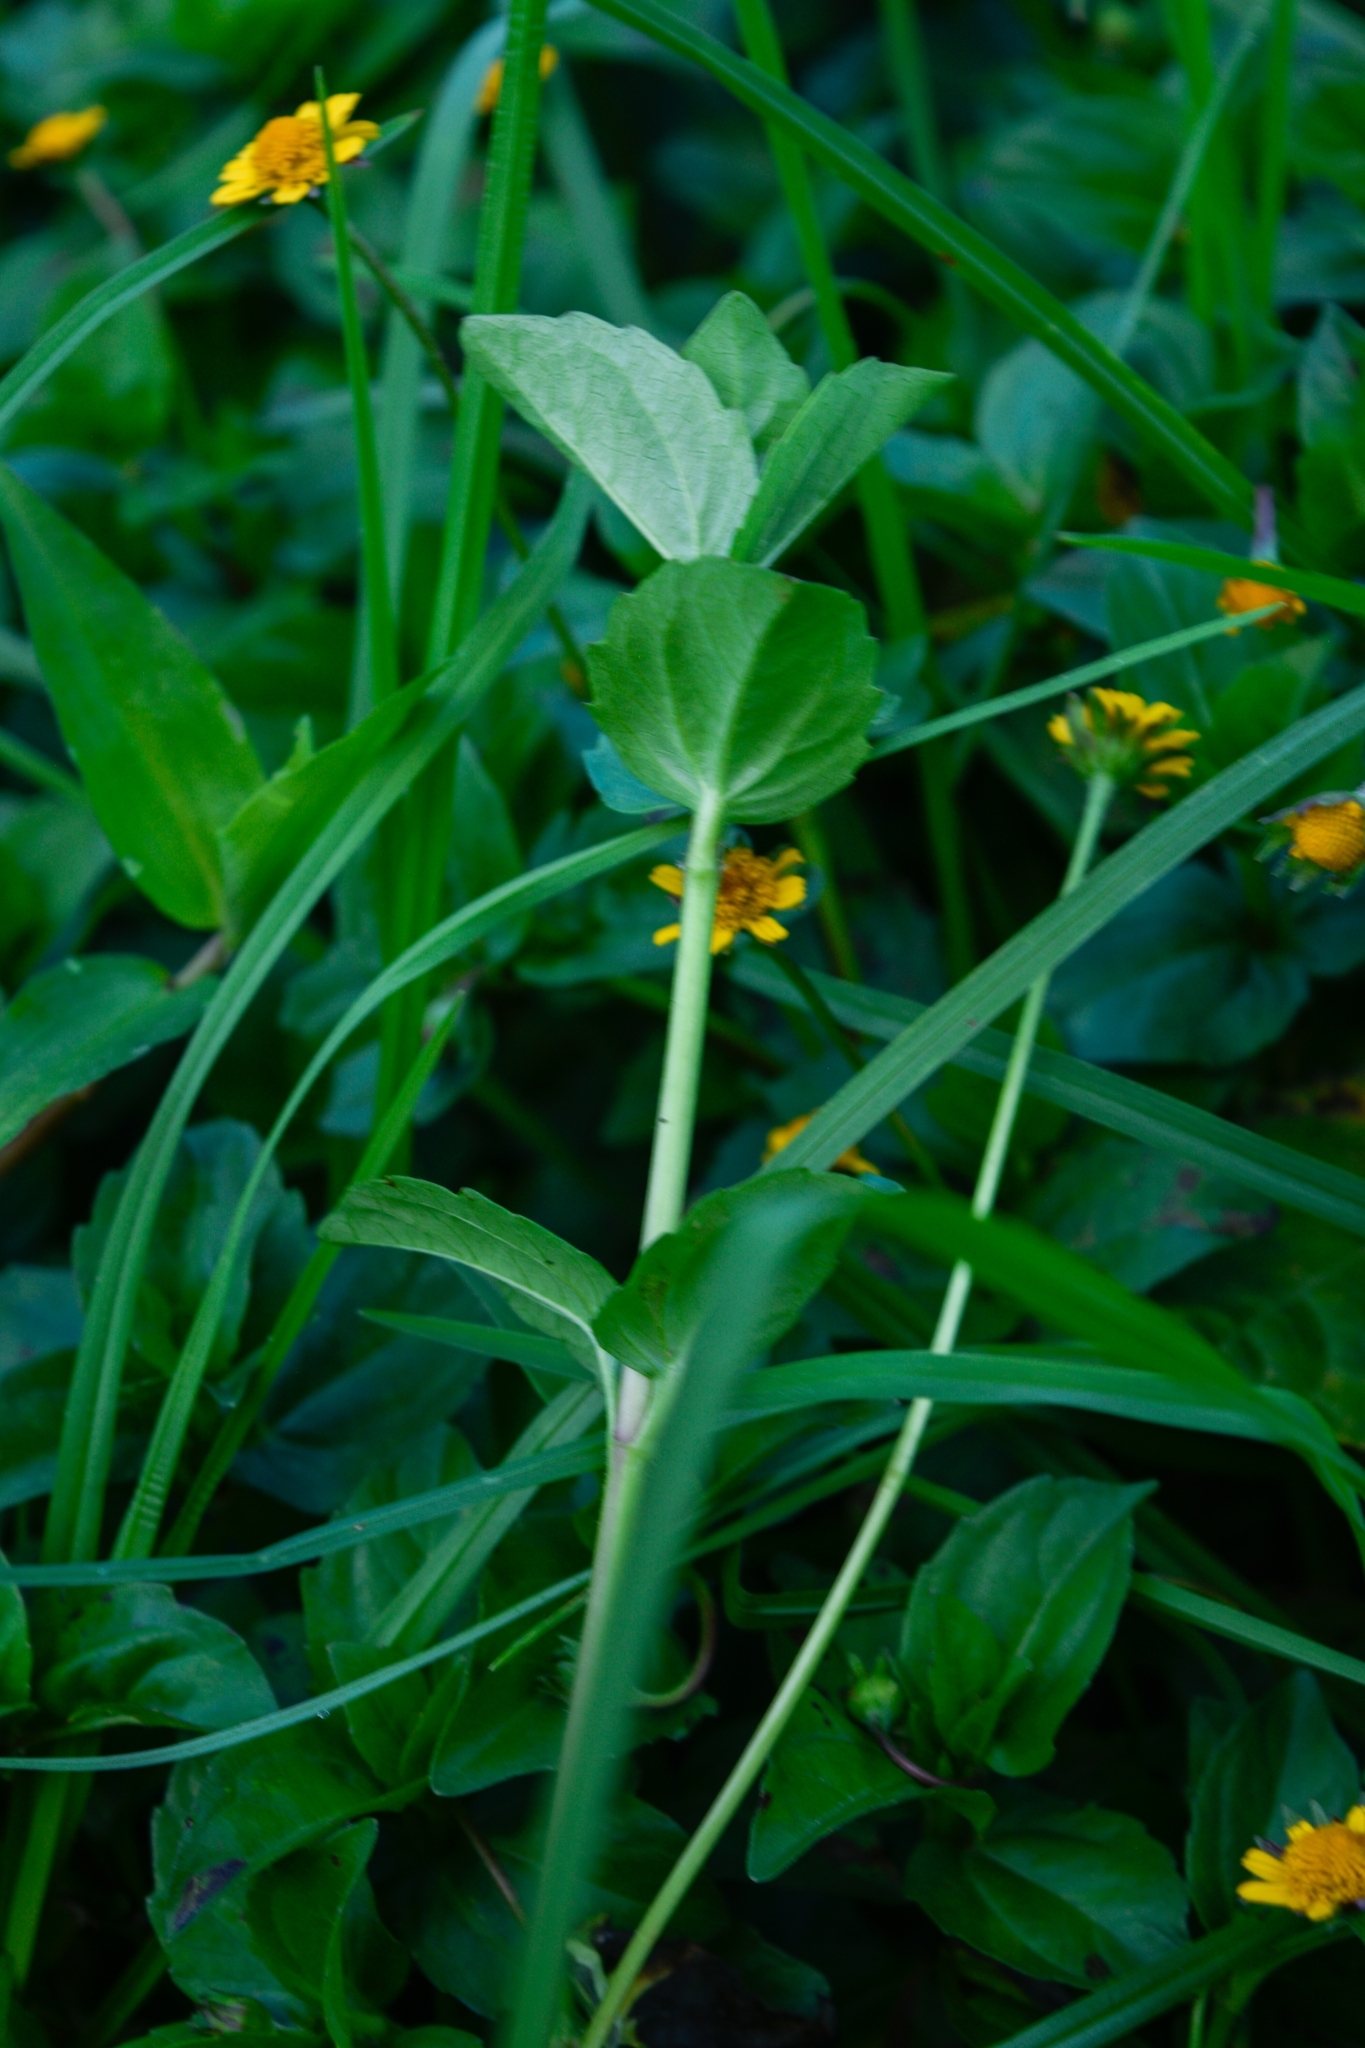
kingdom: Plantae
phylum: Tracheophyta
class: Magnoliopsida
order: Asterales
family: Asteraceae
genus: Acmella
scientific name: Acmella repens
